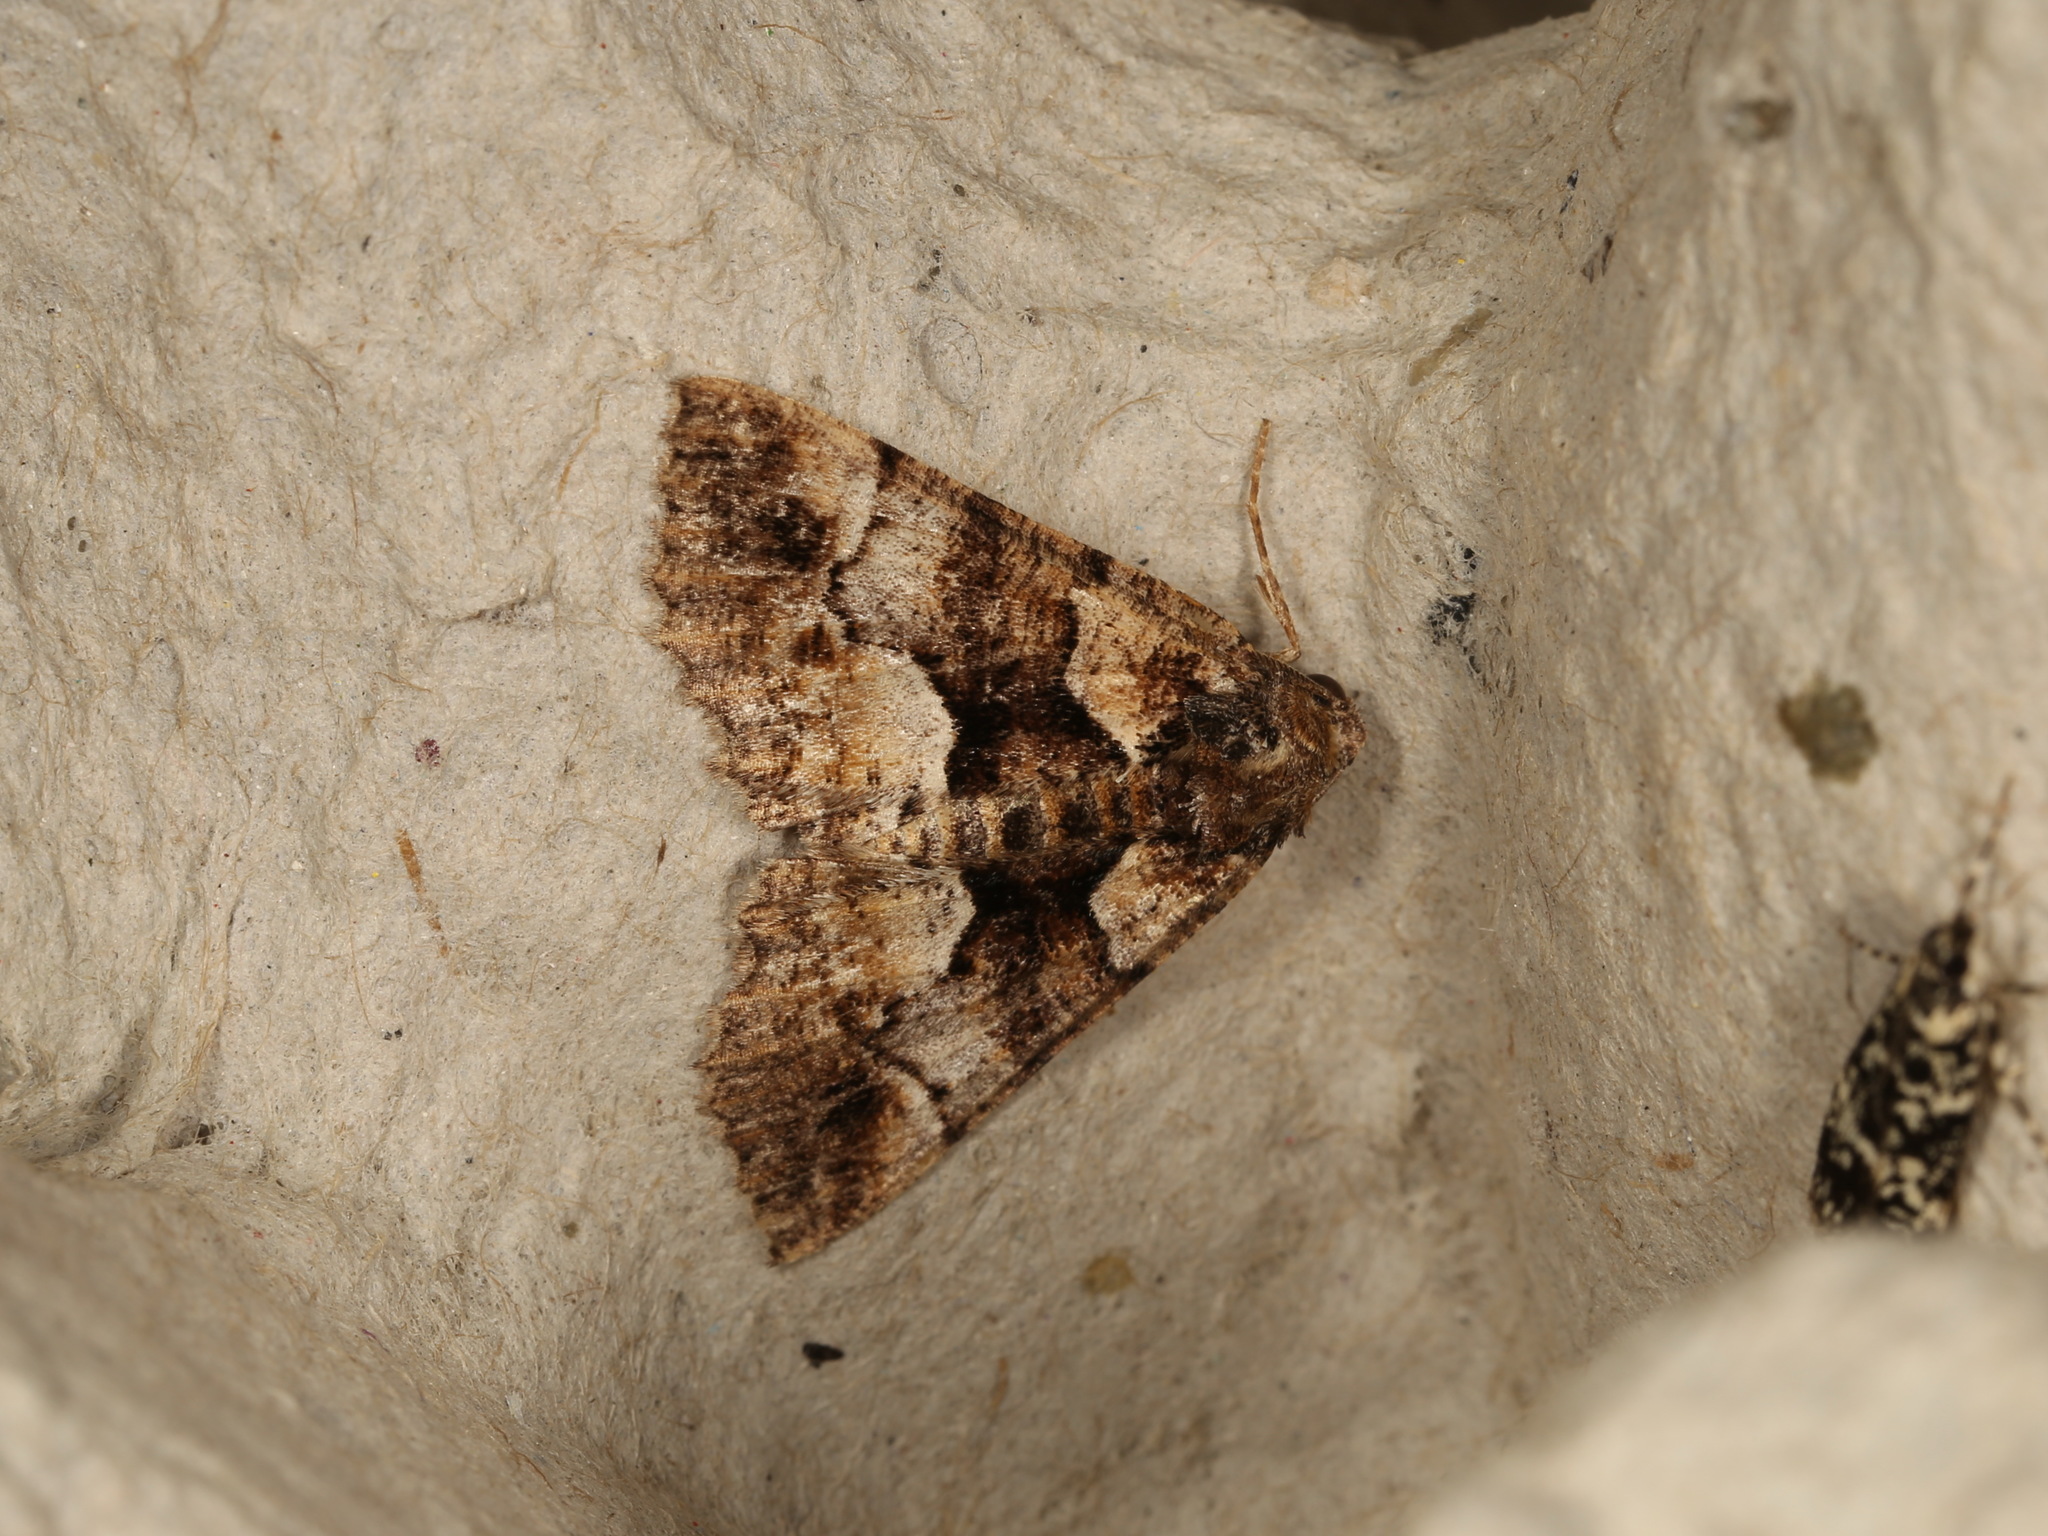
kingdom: Animalia
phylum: Arthropoda
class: Insecta
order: Lepidoptera
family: Geometridae
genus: Gastrina
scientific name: Gastrina cristaria
